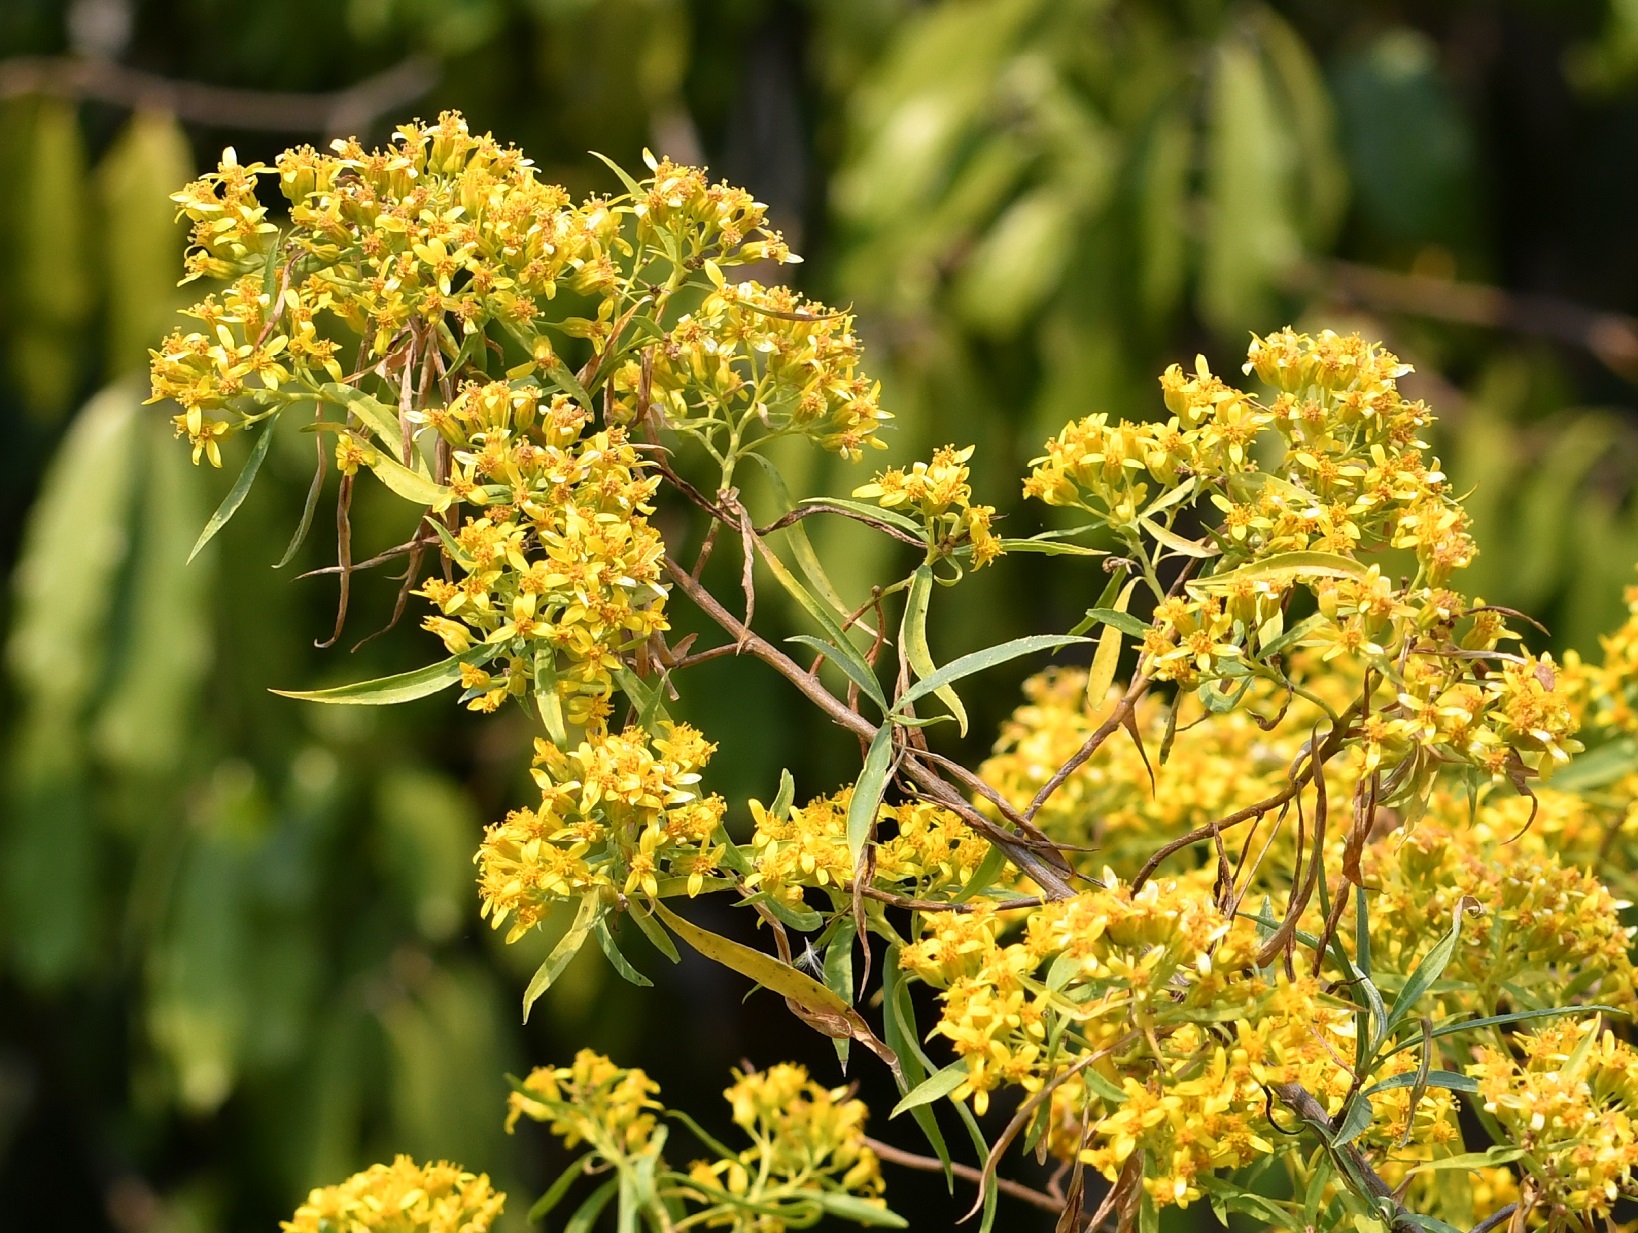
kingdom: Plantae
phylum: Tracheophyta
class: Magnoliopsida
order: Asterales
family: Asteraceae
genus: Barkleyanthus
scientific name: Barkleyanthus salicifolius
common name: Willow ragwort
